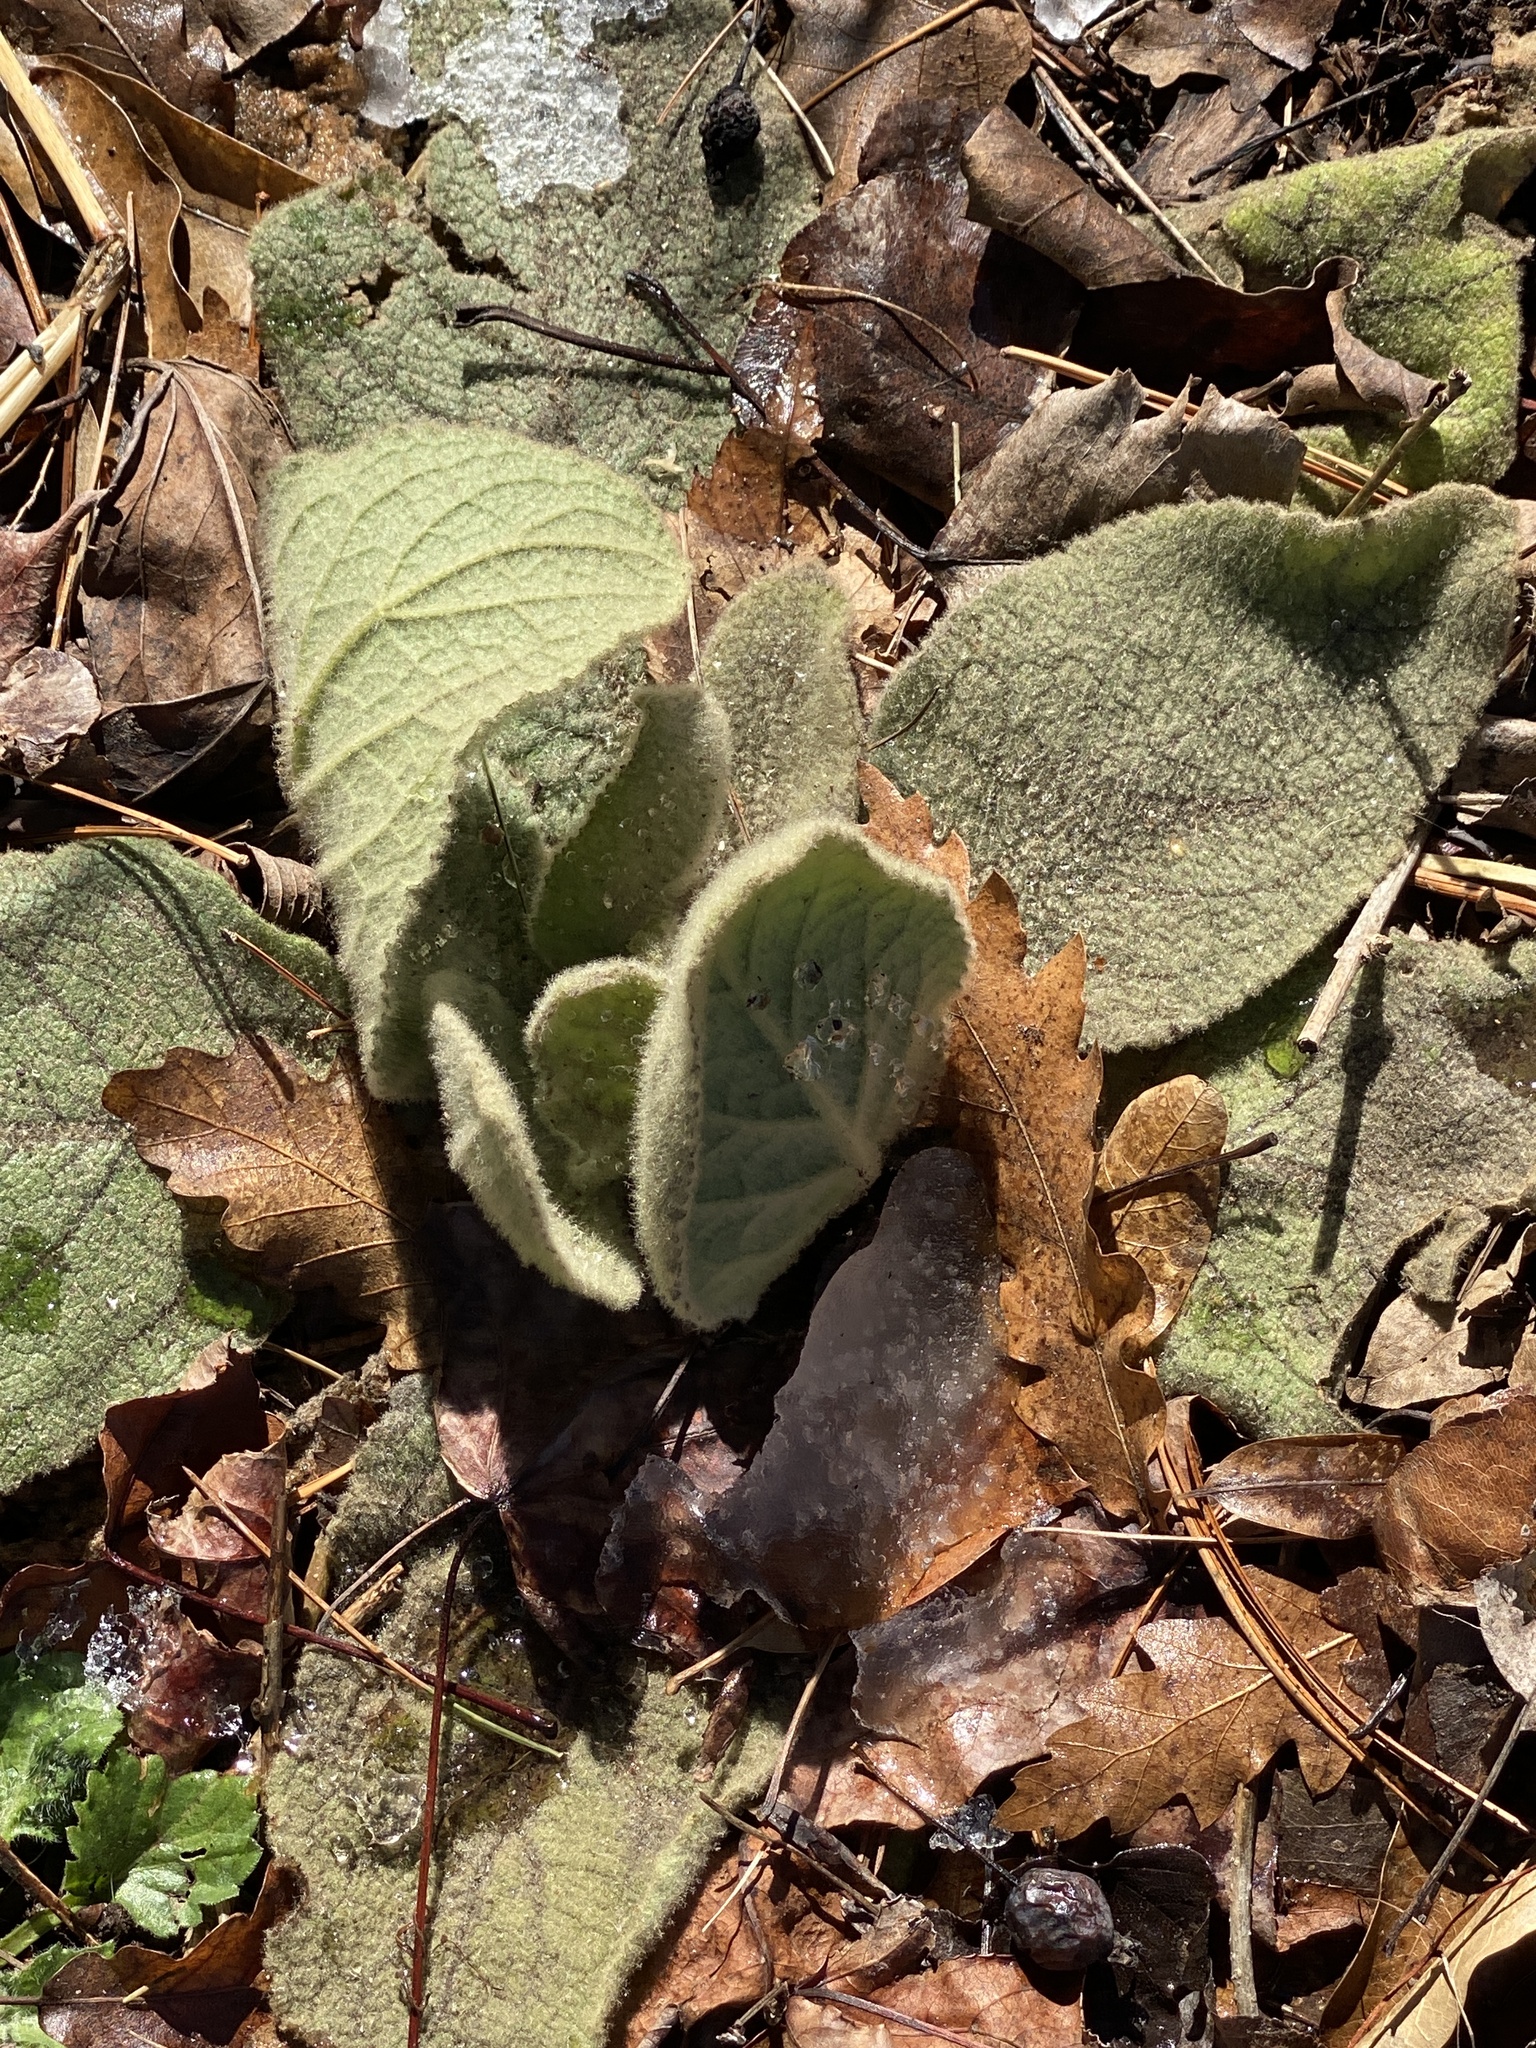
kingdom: Plantae
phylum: Tracheophyta
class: Magnoliopsida
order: Lamiales
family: Scrophulariaceae
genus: Verbascum
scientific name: Verbascum thapsus
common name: Common mullein
